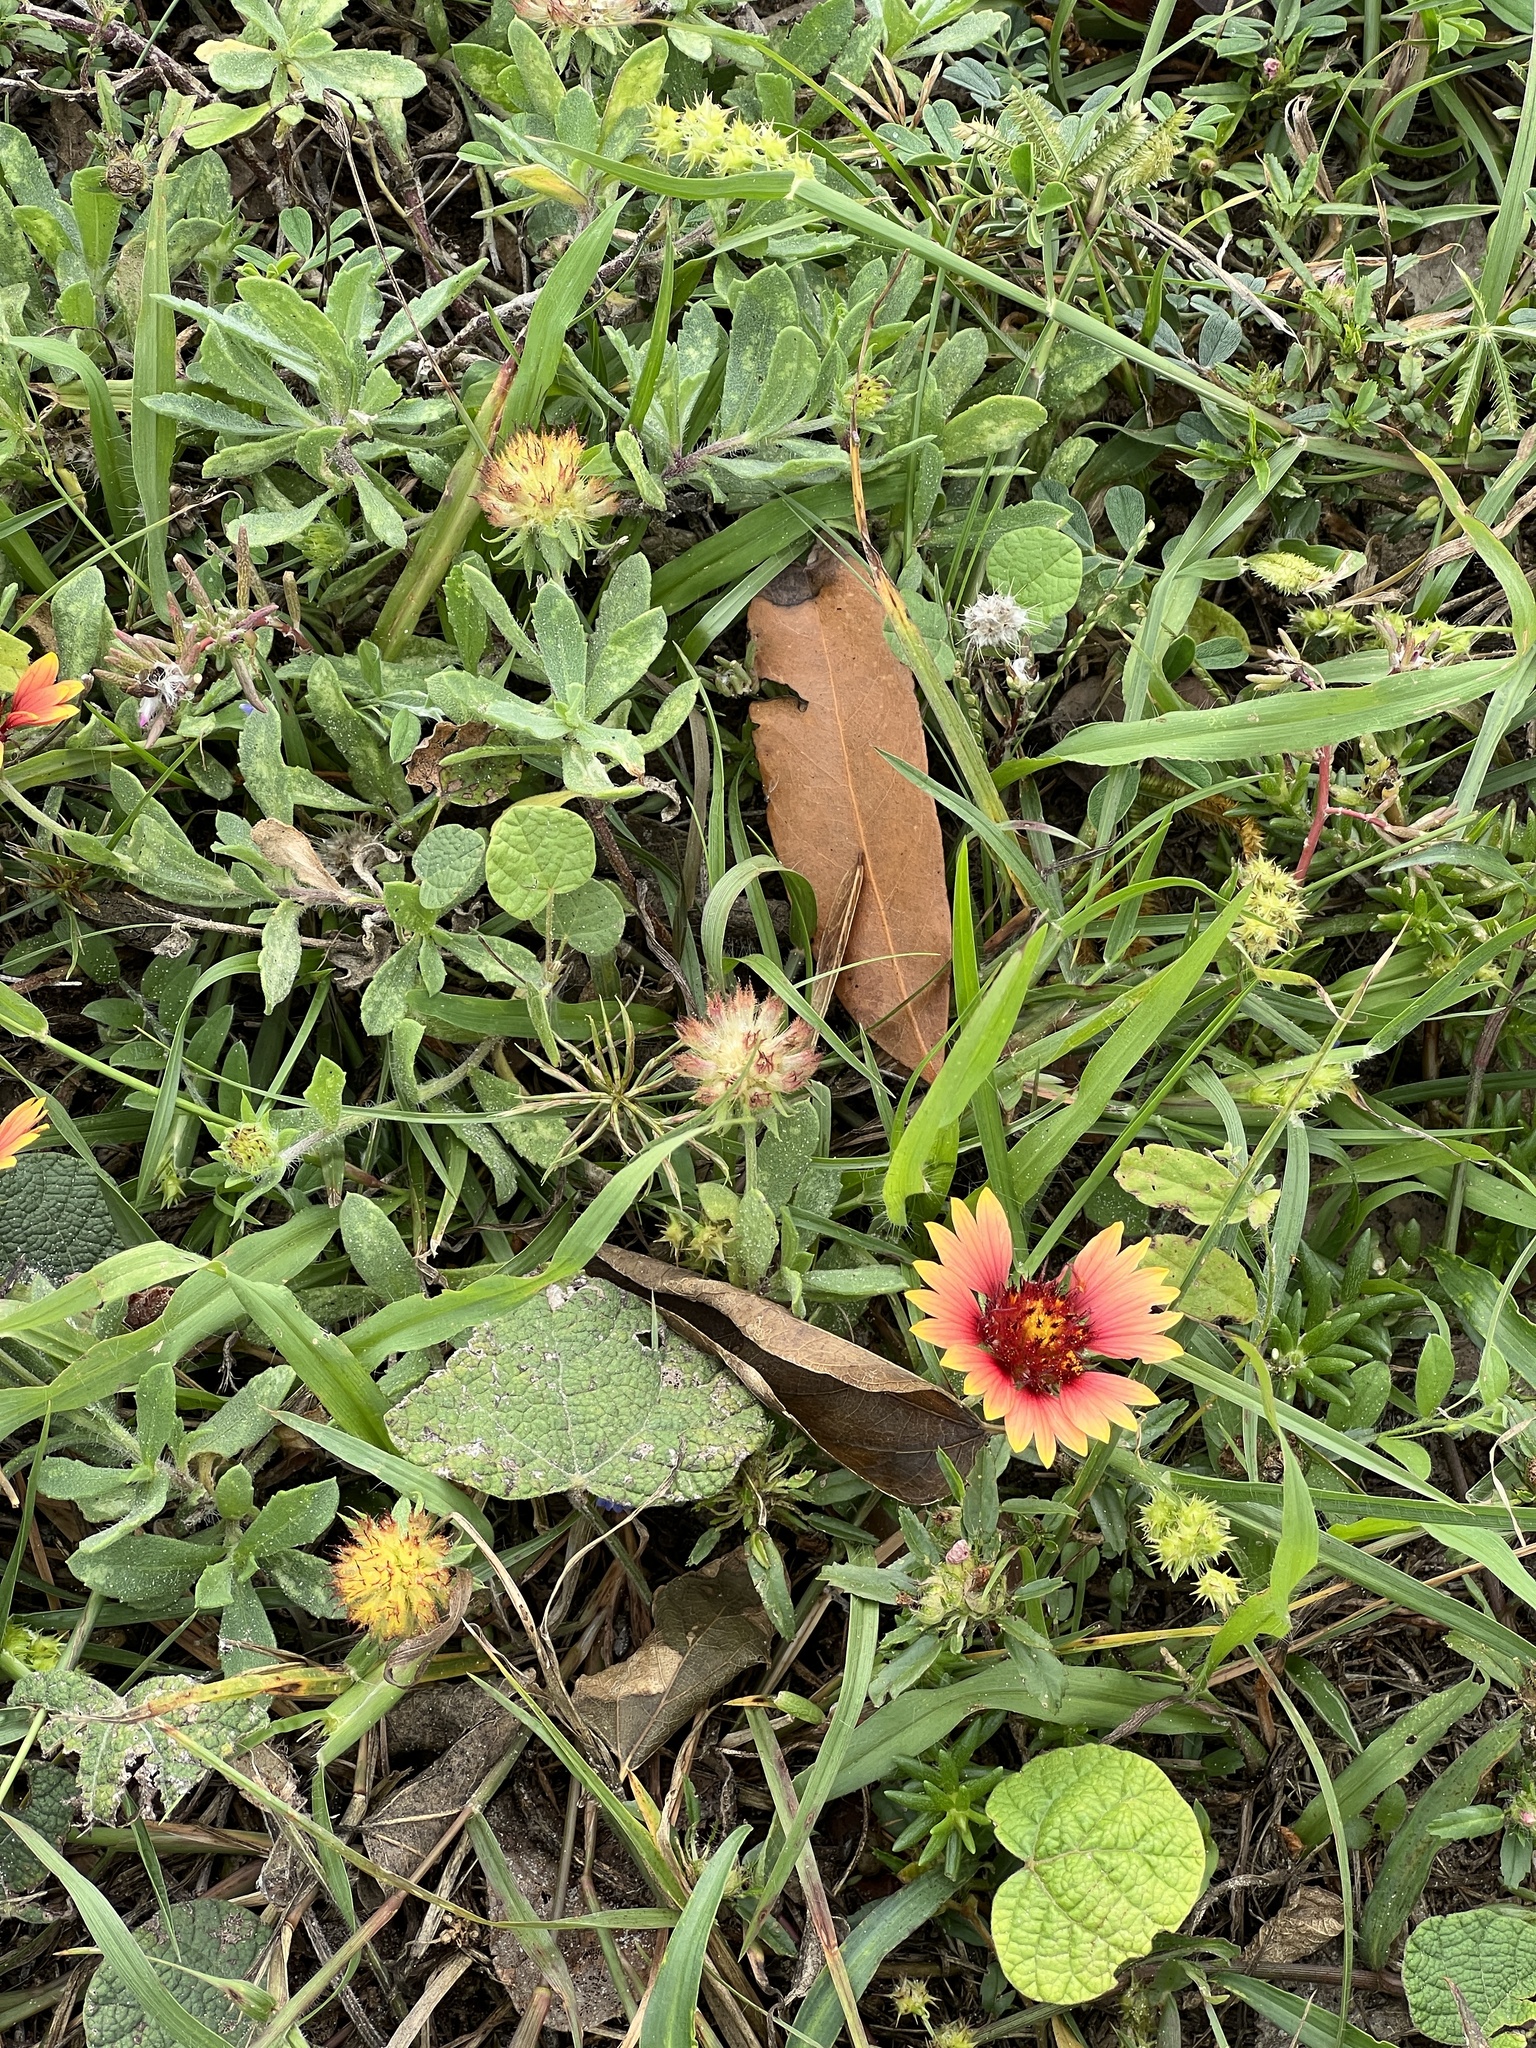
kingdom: Plantae
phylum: Tracheophyta
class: Magnoliopsida
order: Asterales
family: Asteraceae
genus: Gaillardia
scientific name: Gaillardia pulchella
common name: Firewheel
